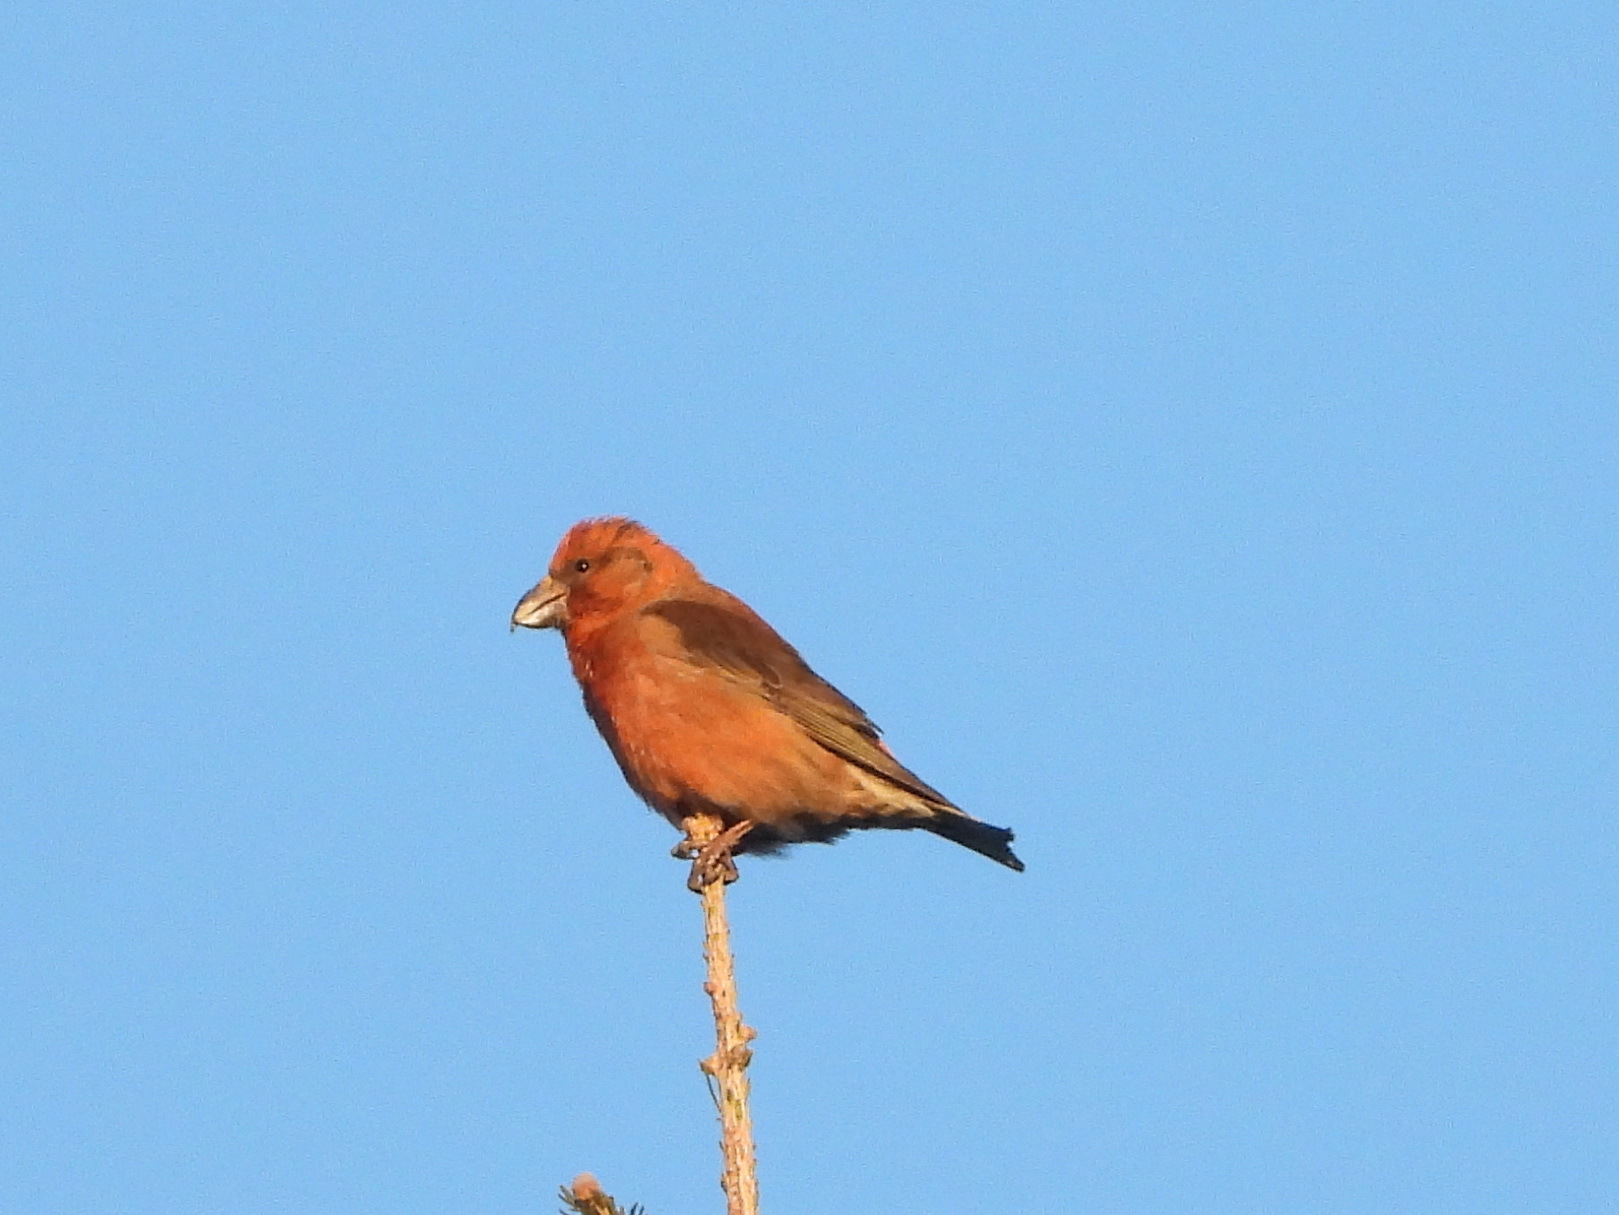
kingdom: Animalia
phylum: Chordata
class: Aves
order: Passeriformes
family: Fringillidae
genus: Loxia
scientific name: Loxia curvirostra
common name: Red crossbill
